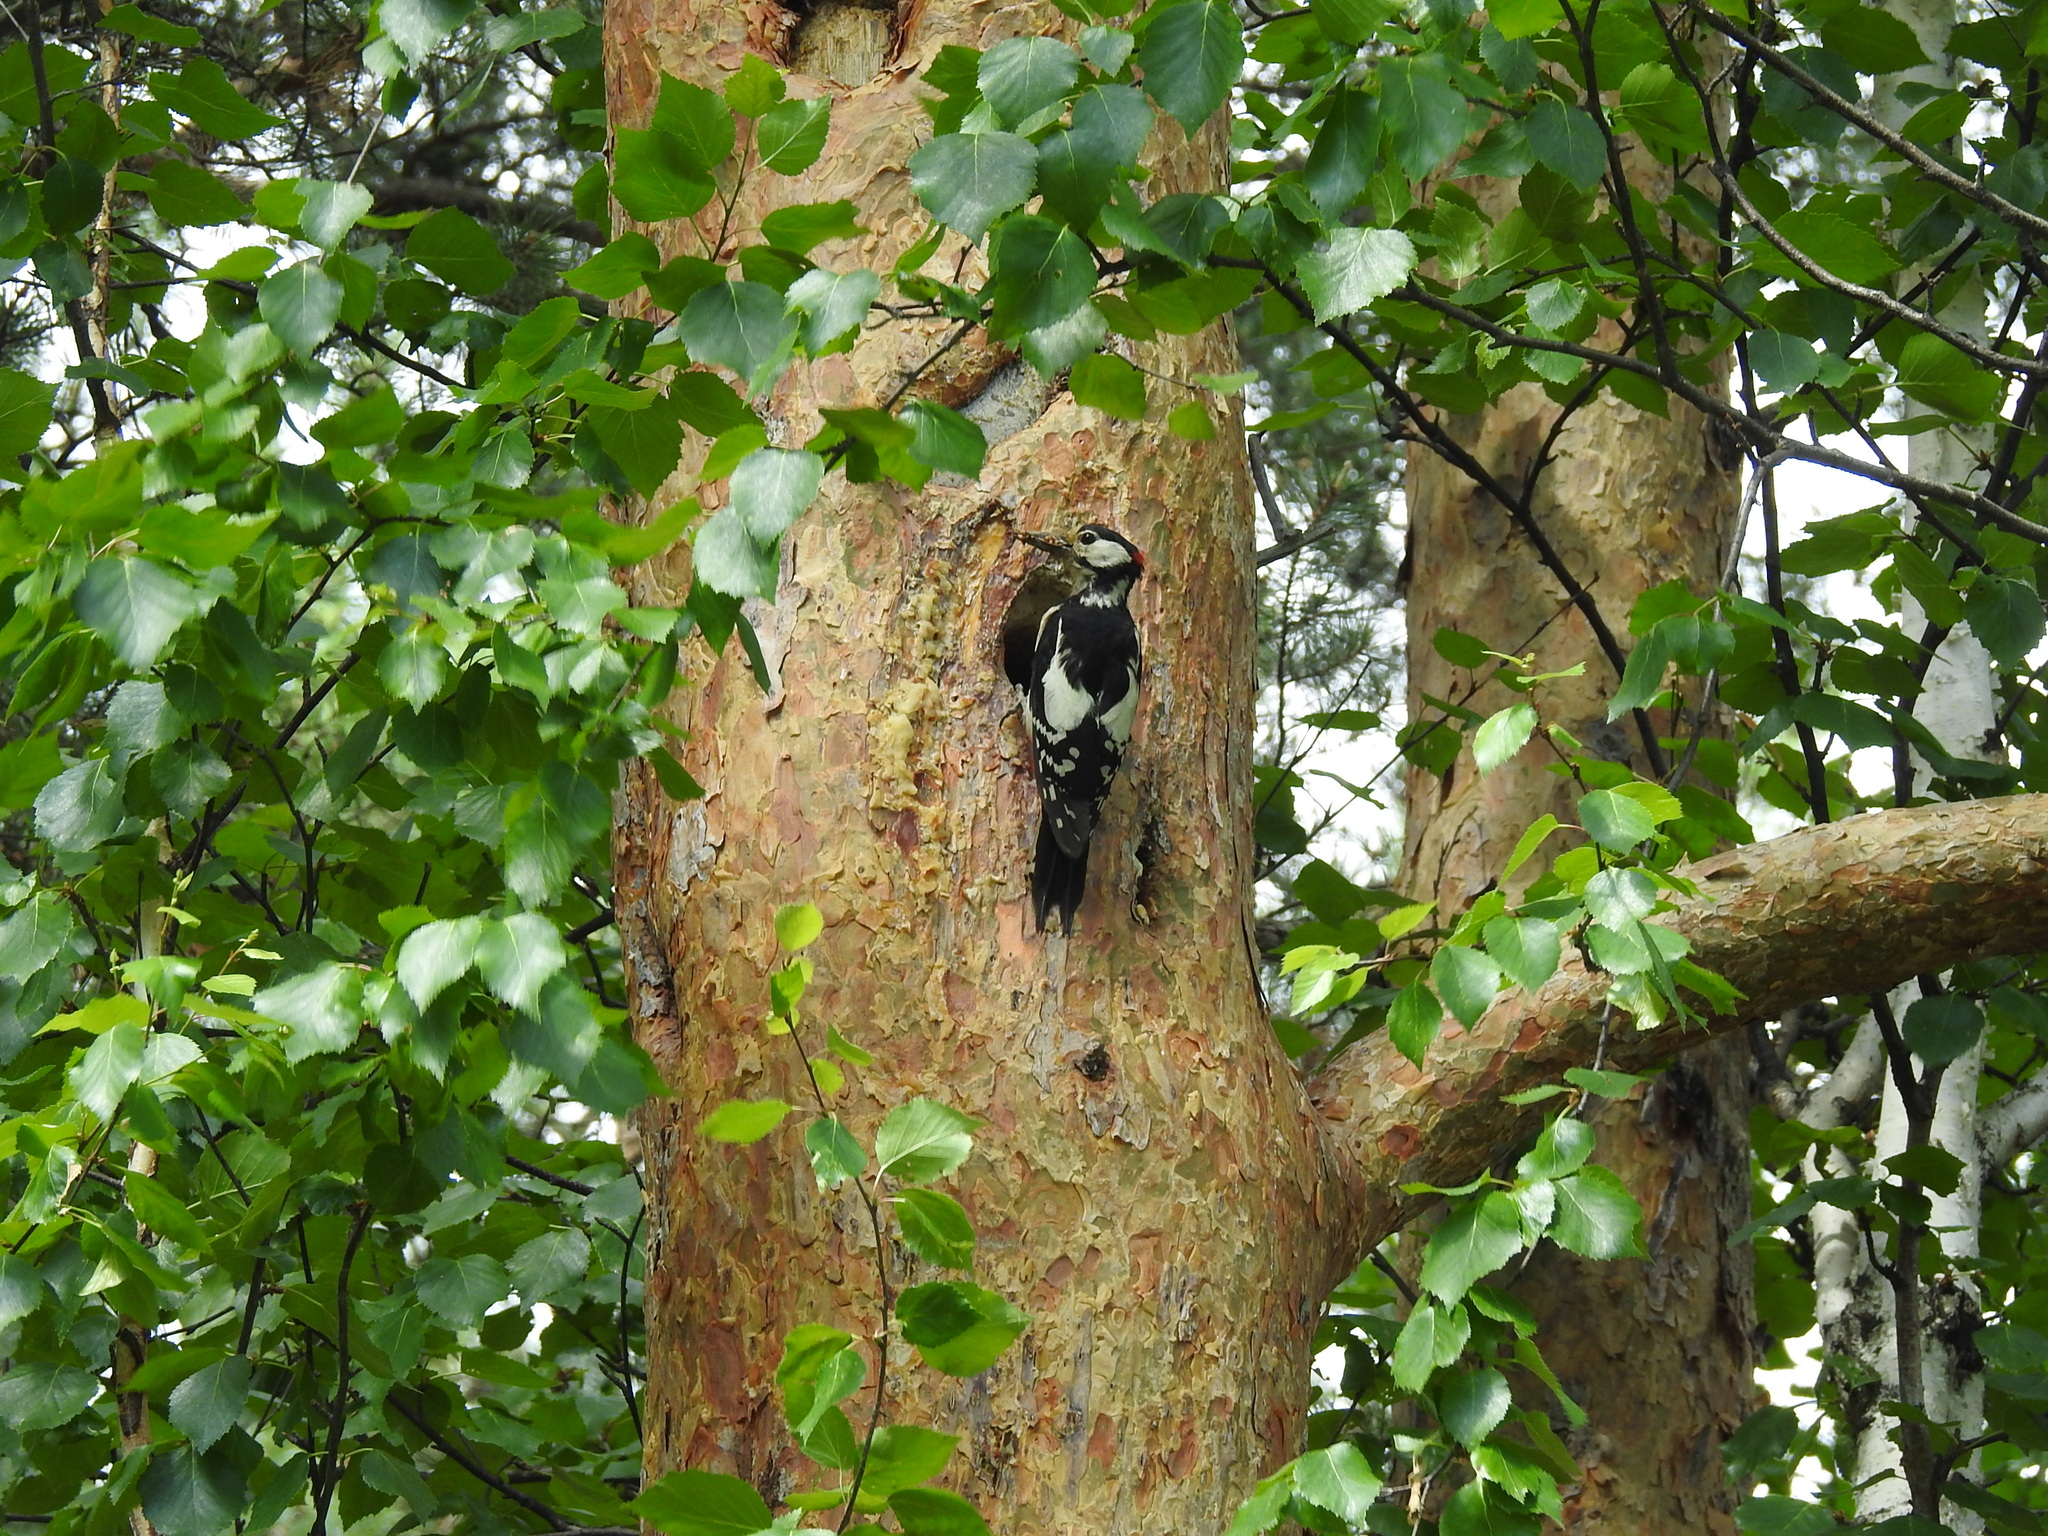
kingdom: Animalia
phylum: Chordata
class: Aves
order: Piciformes
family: Picidae
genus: Dendrocopos
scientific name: Dendrocopos major
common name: Great spotted woodpecker
